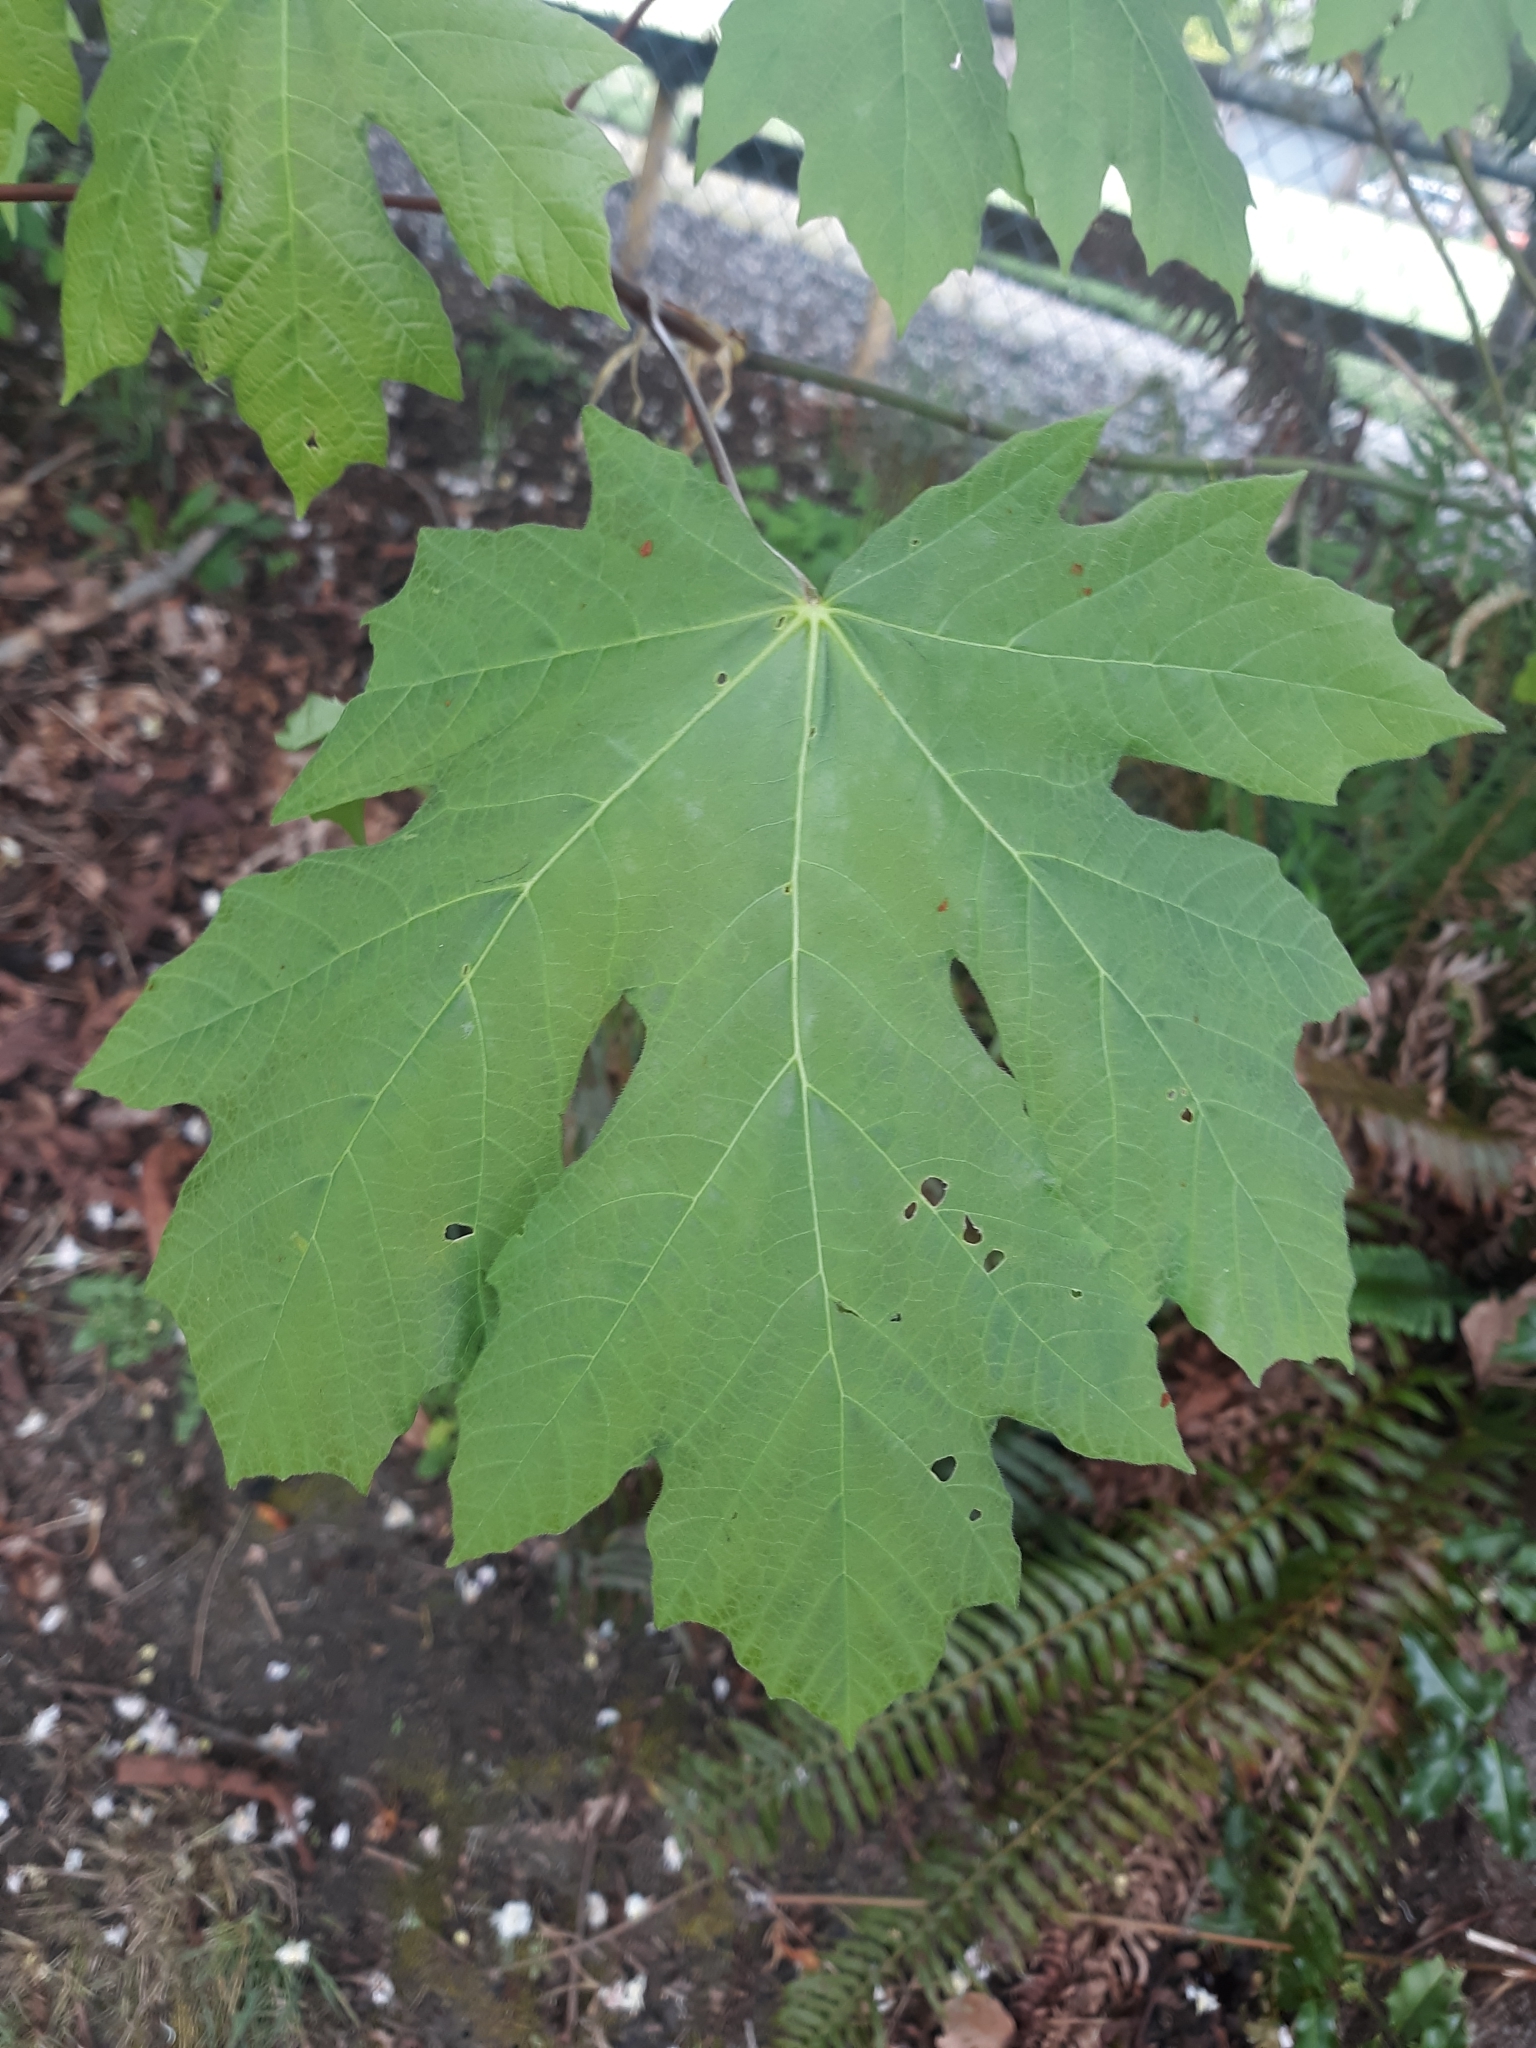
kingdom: Plantae
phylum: Tracheophyta
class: Magnoliopsida
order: Sapindales
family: Sapindaceae
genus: Acer
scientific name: Acer macrophyllum
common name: Oregon maple
